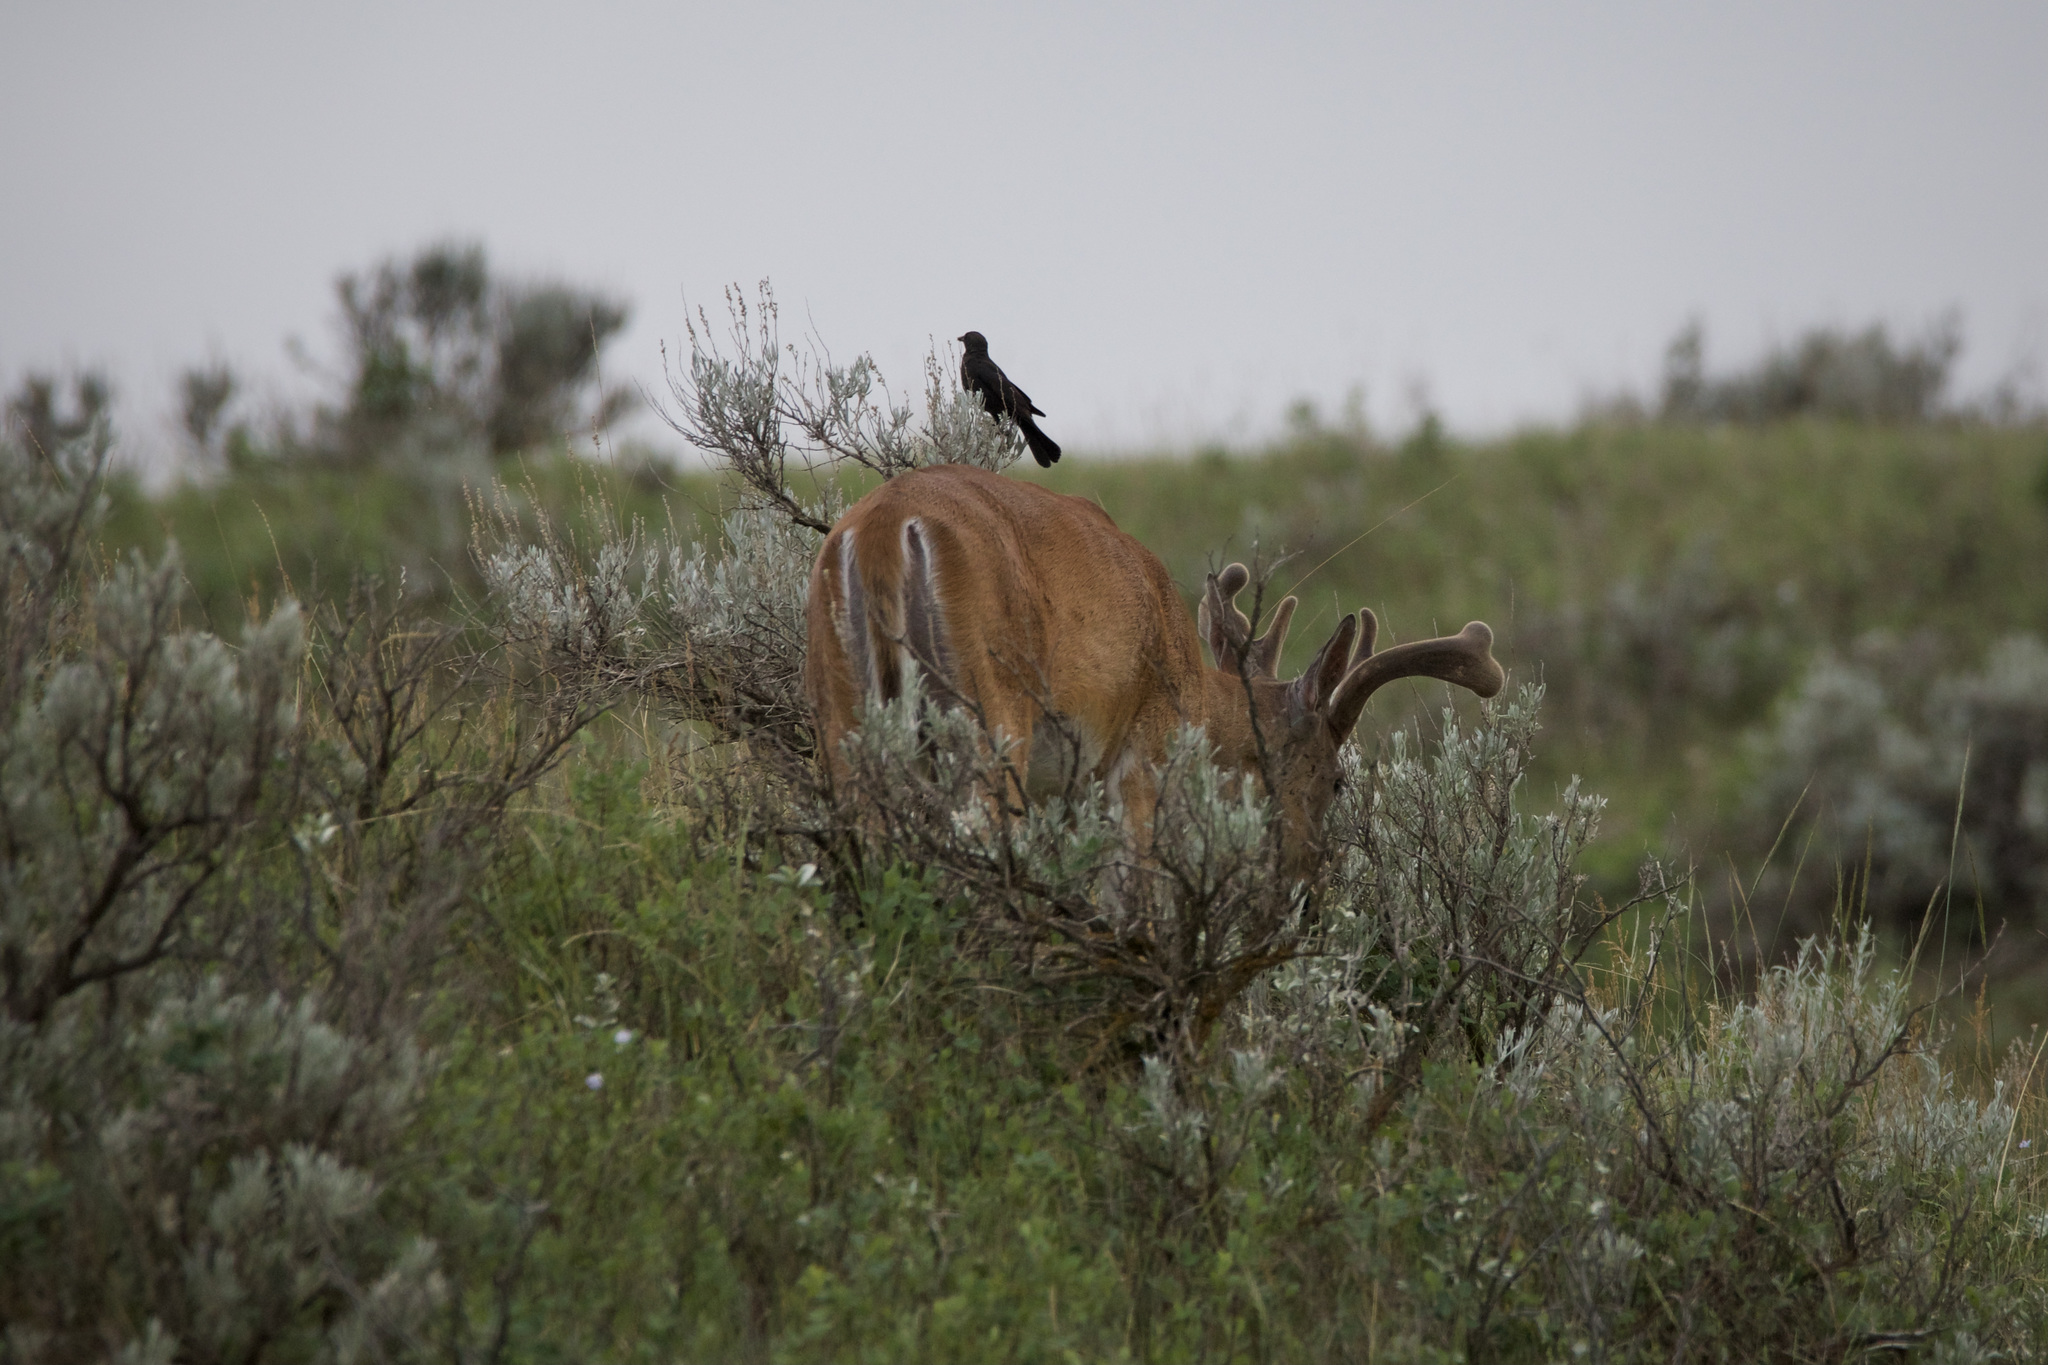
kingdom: Animalia
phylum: Chordata
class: Mammalia
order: Artiodactyla
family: Cervidae
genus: Odocoileus
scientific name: Odocoileus virginianus
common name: White-tailed deer
